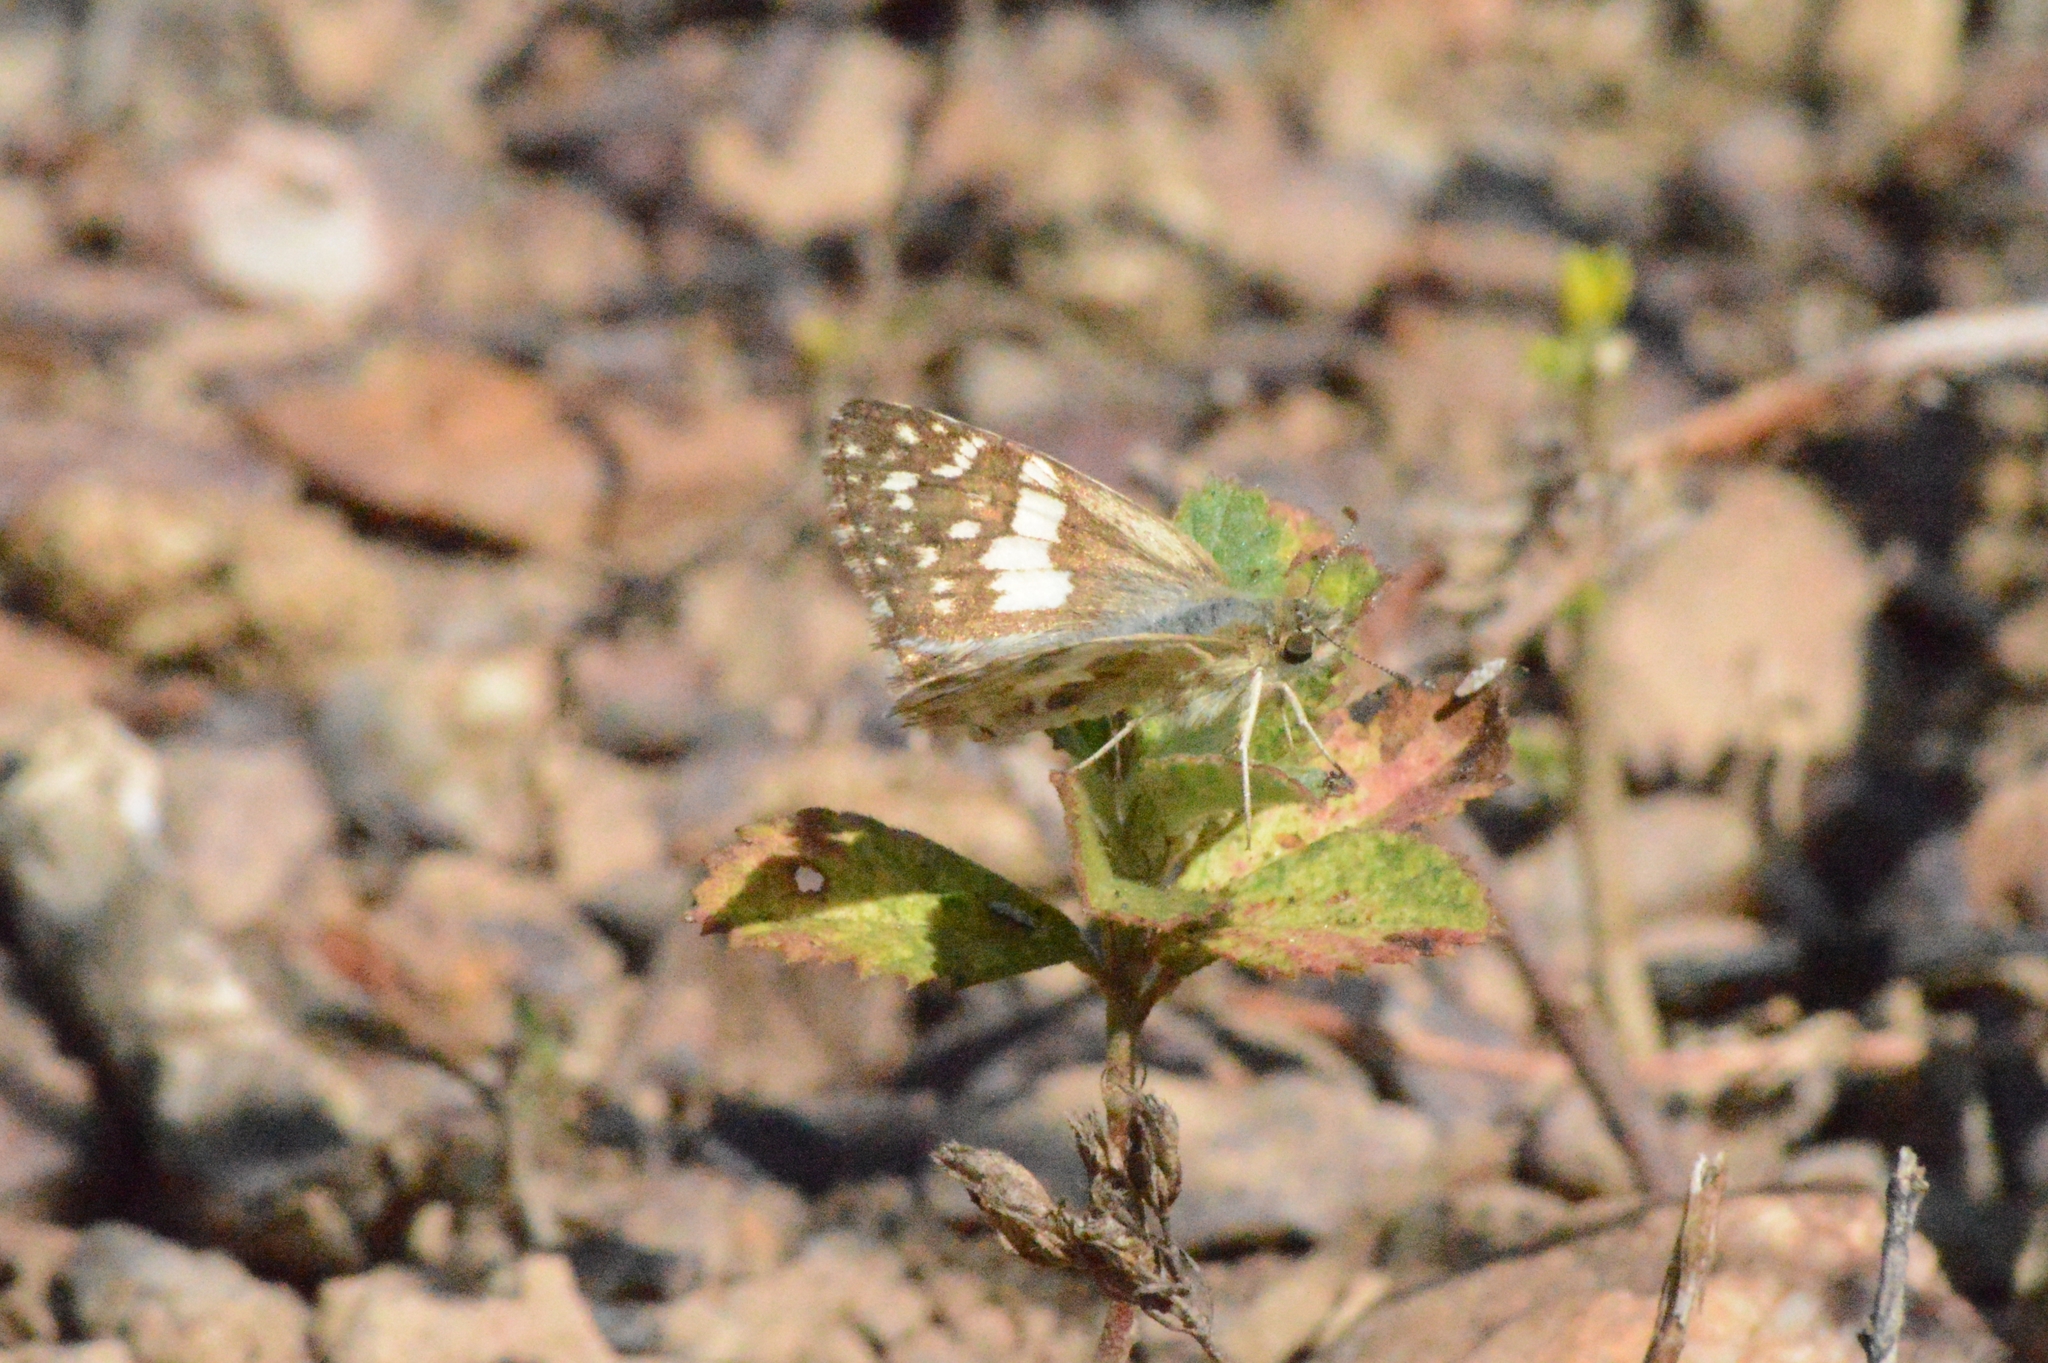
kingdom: Animalia
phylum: Arthropoda
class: Insecta
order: Lepidoptera
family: Hesperiidae
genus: Burnsius
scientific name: Burnsius orcynoides
